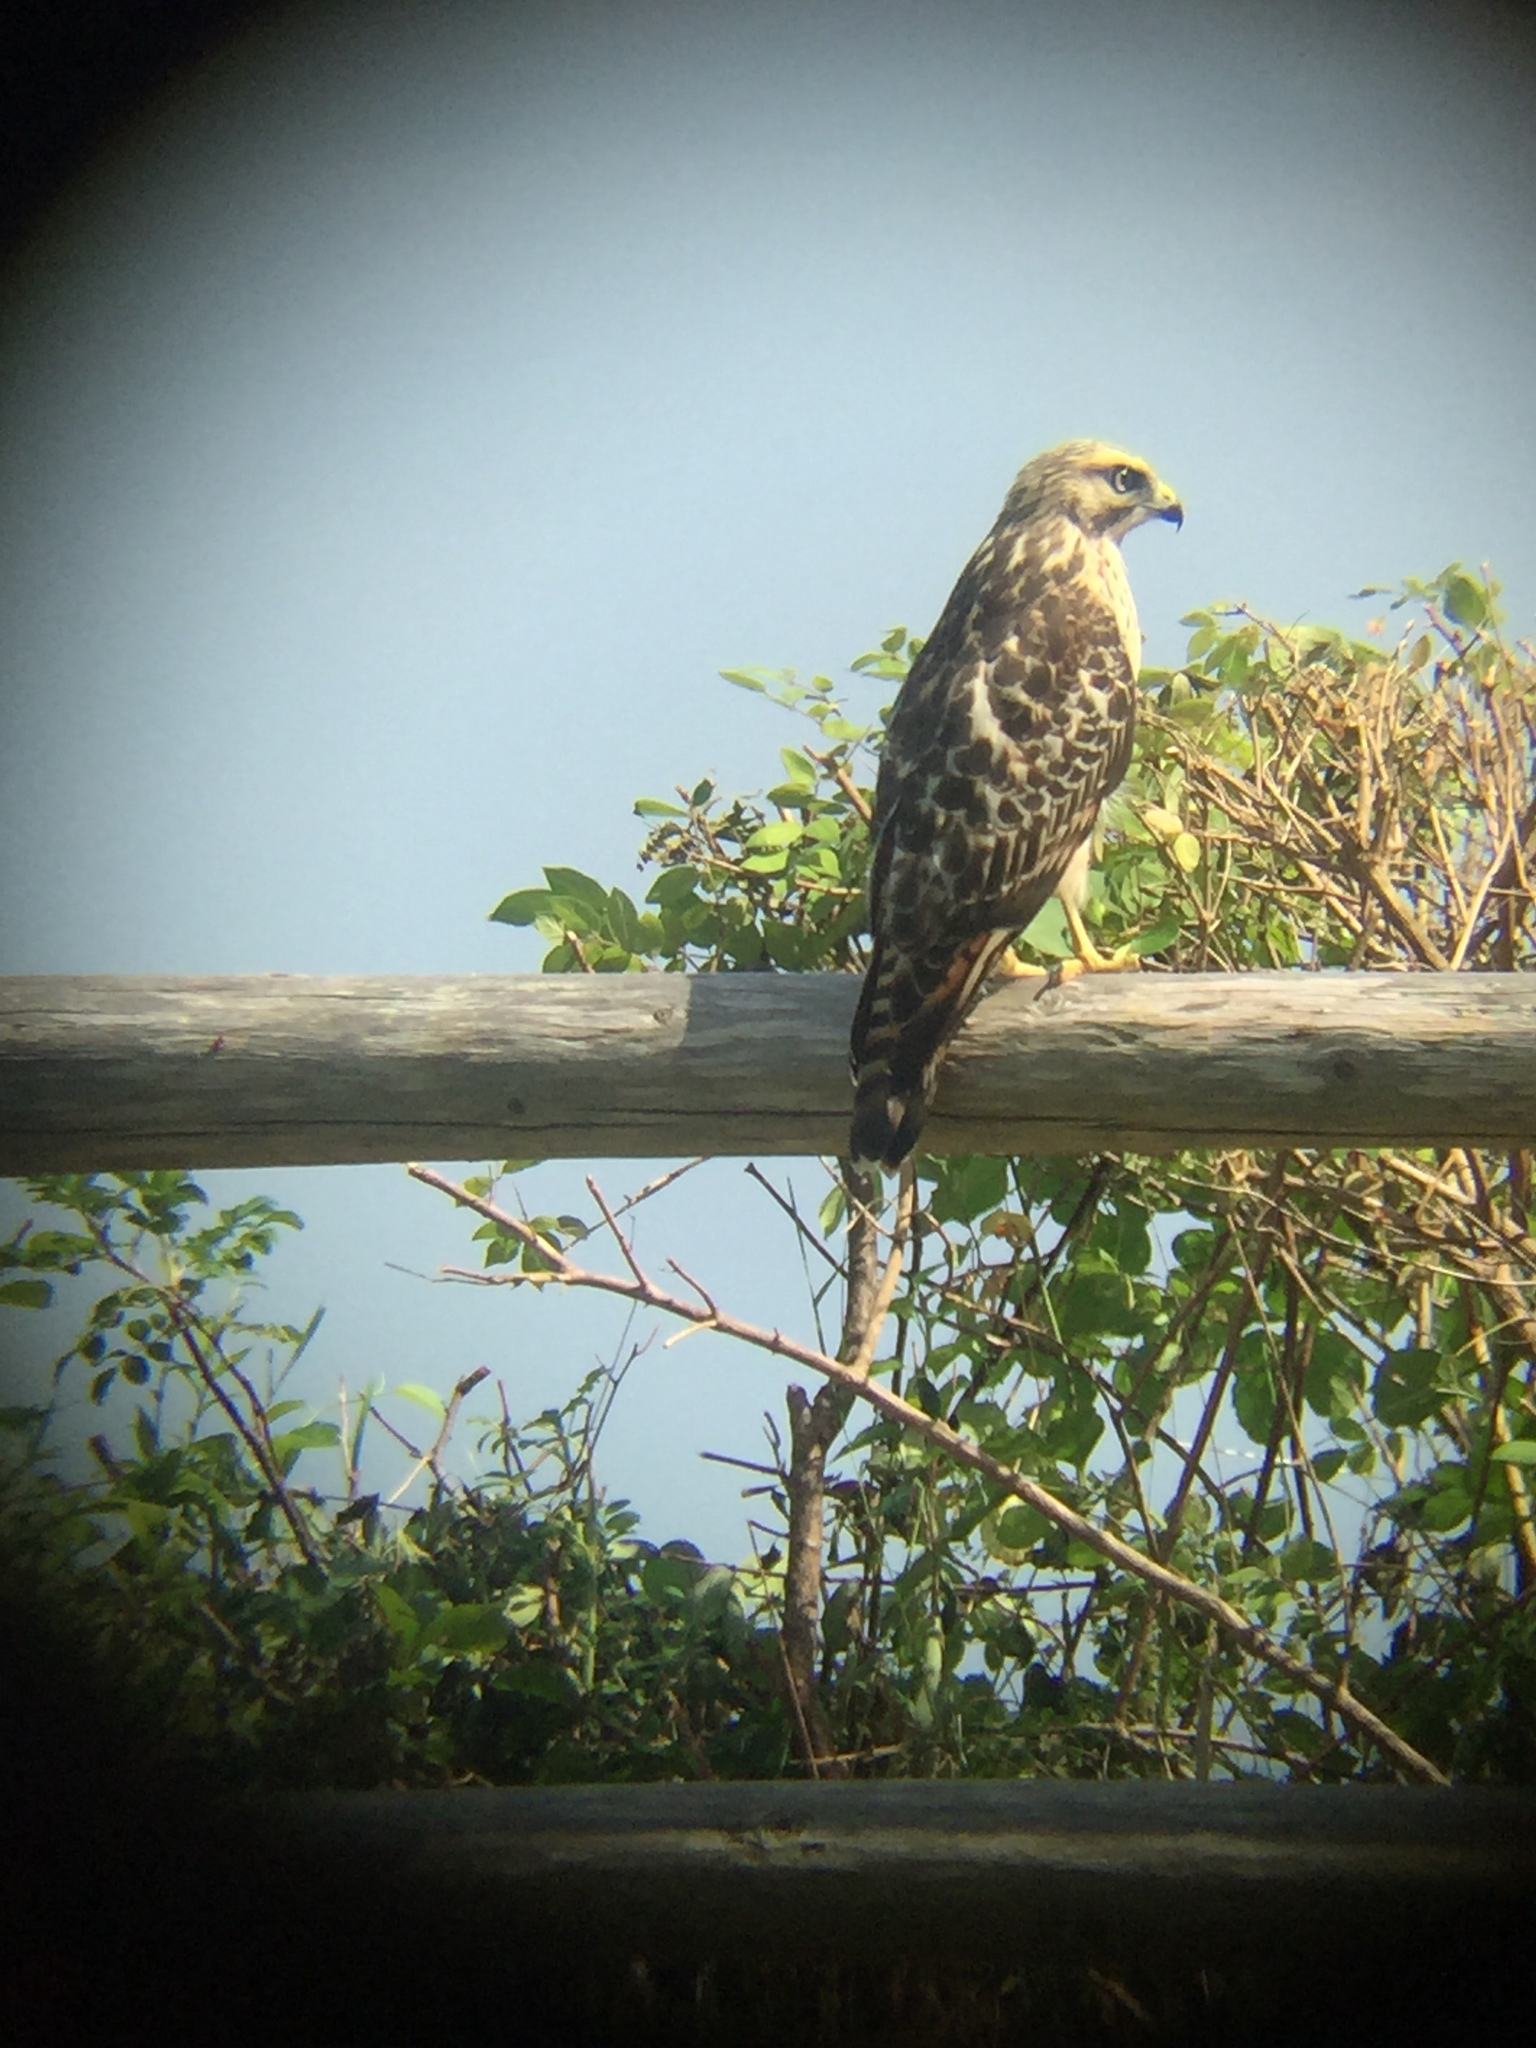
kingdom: Animalia
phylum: Chordata
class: Aves
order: Accipitriformes
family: Accipitridae
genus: Buteo
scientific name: Buteo lineatus
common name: Red-shouldered hawk
